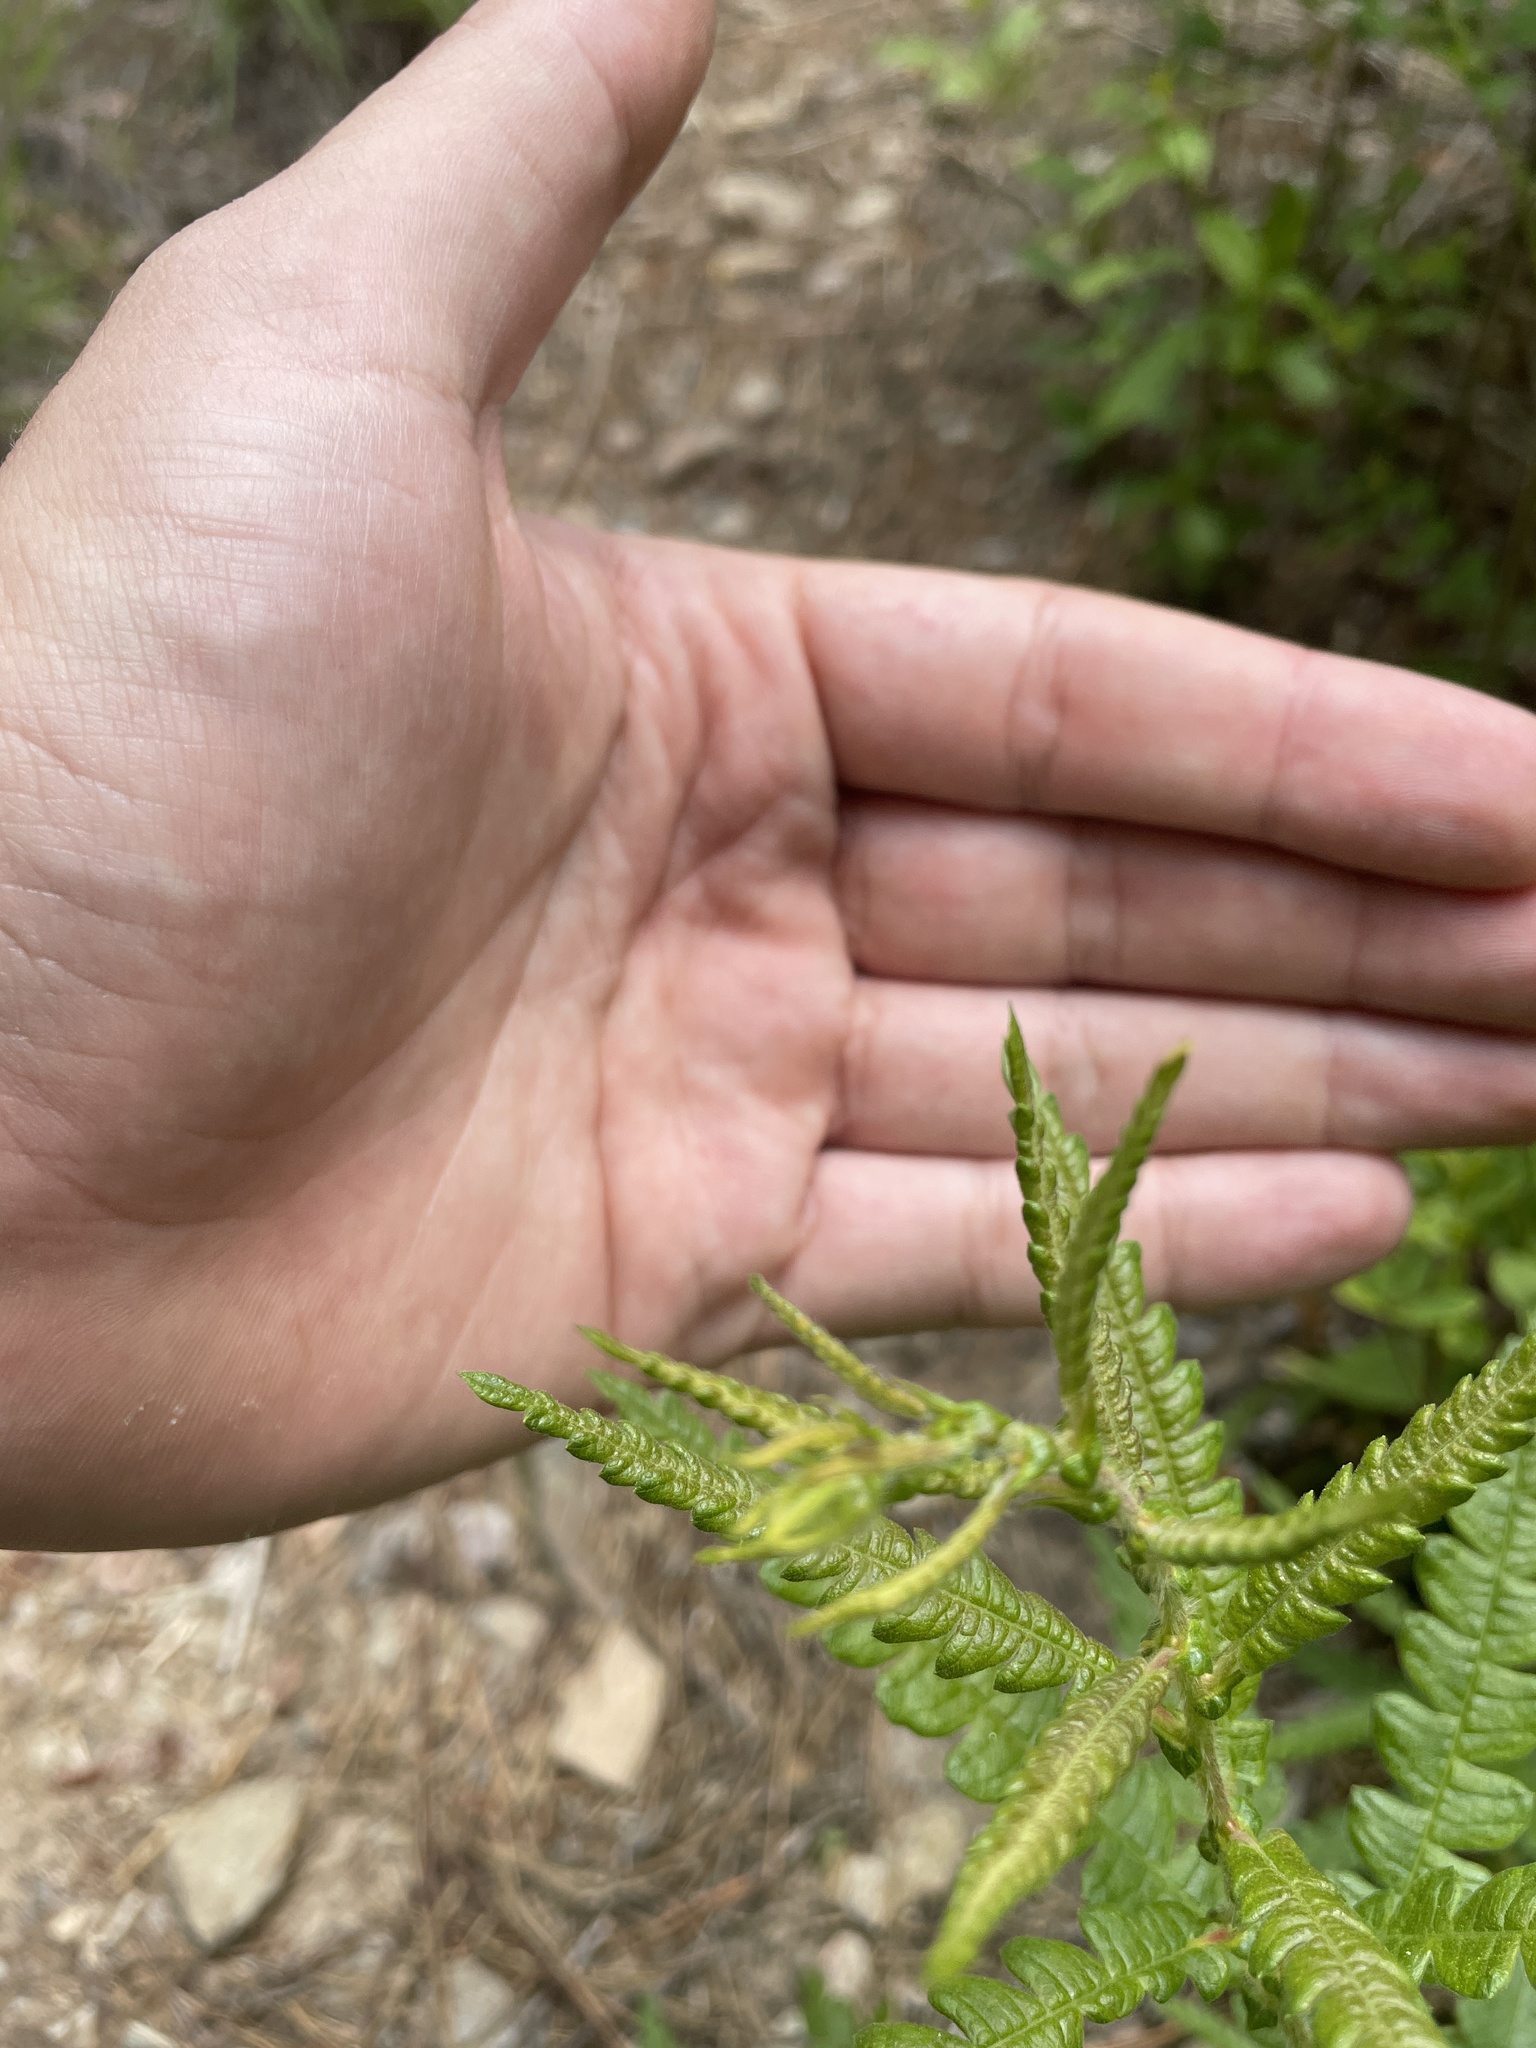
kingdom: Plantae
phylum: Tracheophyta
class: Magnoliopsida
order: Fagales
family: Myricaceae
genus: Comptonia
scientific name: Comptonia peregrina
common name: Sweet-fern
